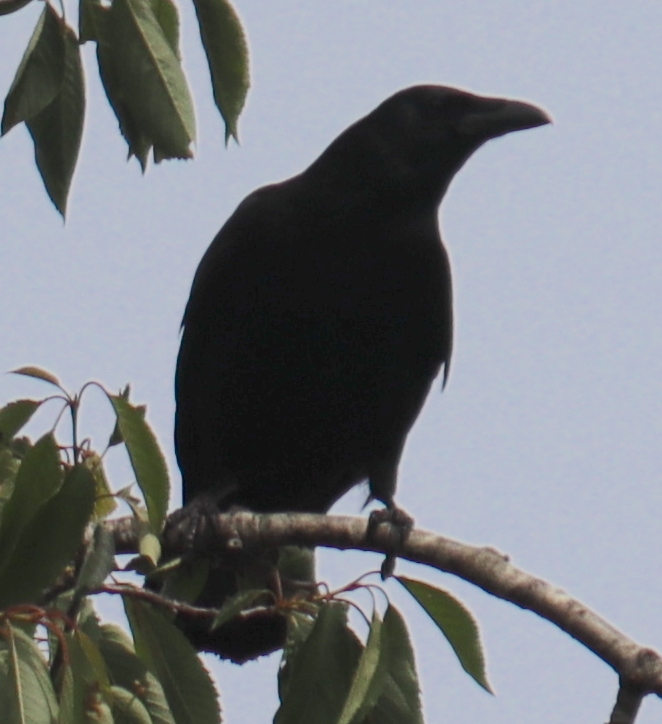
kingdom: Animalia
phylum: Chordata
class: Aves
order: Passeriformes
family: Corvidae
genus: Corvus
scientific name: Corvus corone
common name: Carrion crow
